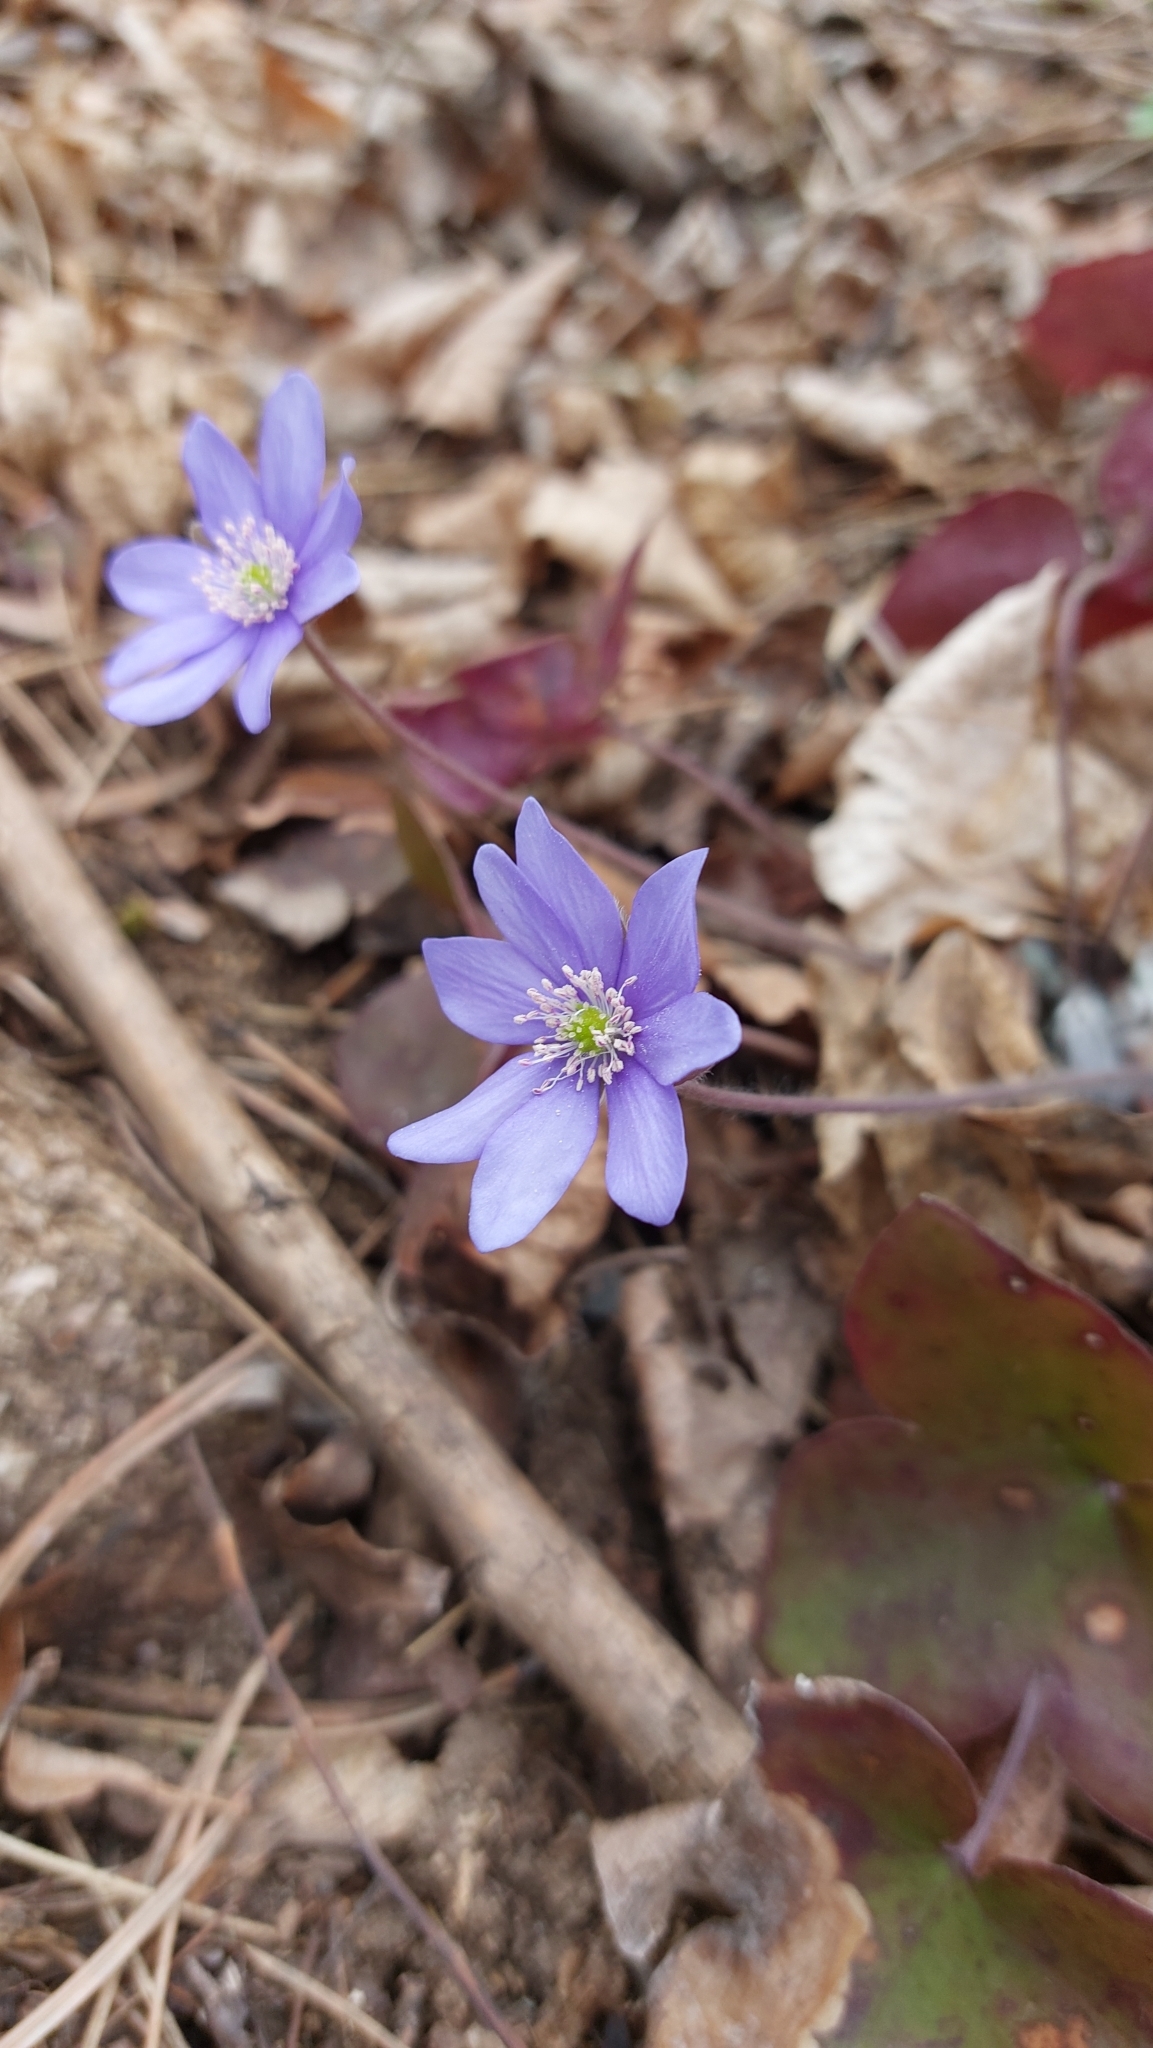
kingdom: Plantae
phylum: Tracheophyta
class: Magnoliopsida
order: Ranunculales
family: Ranunculaceae
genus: Hepatica
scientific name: Hepatica nobilis
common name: Liverleaf
